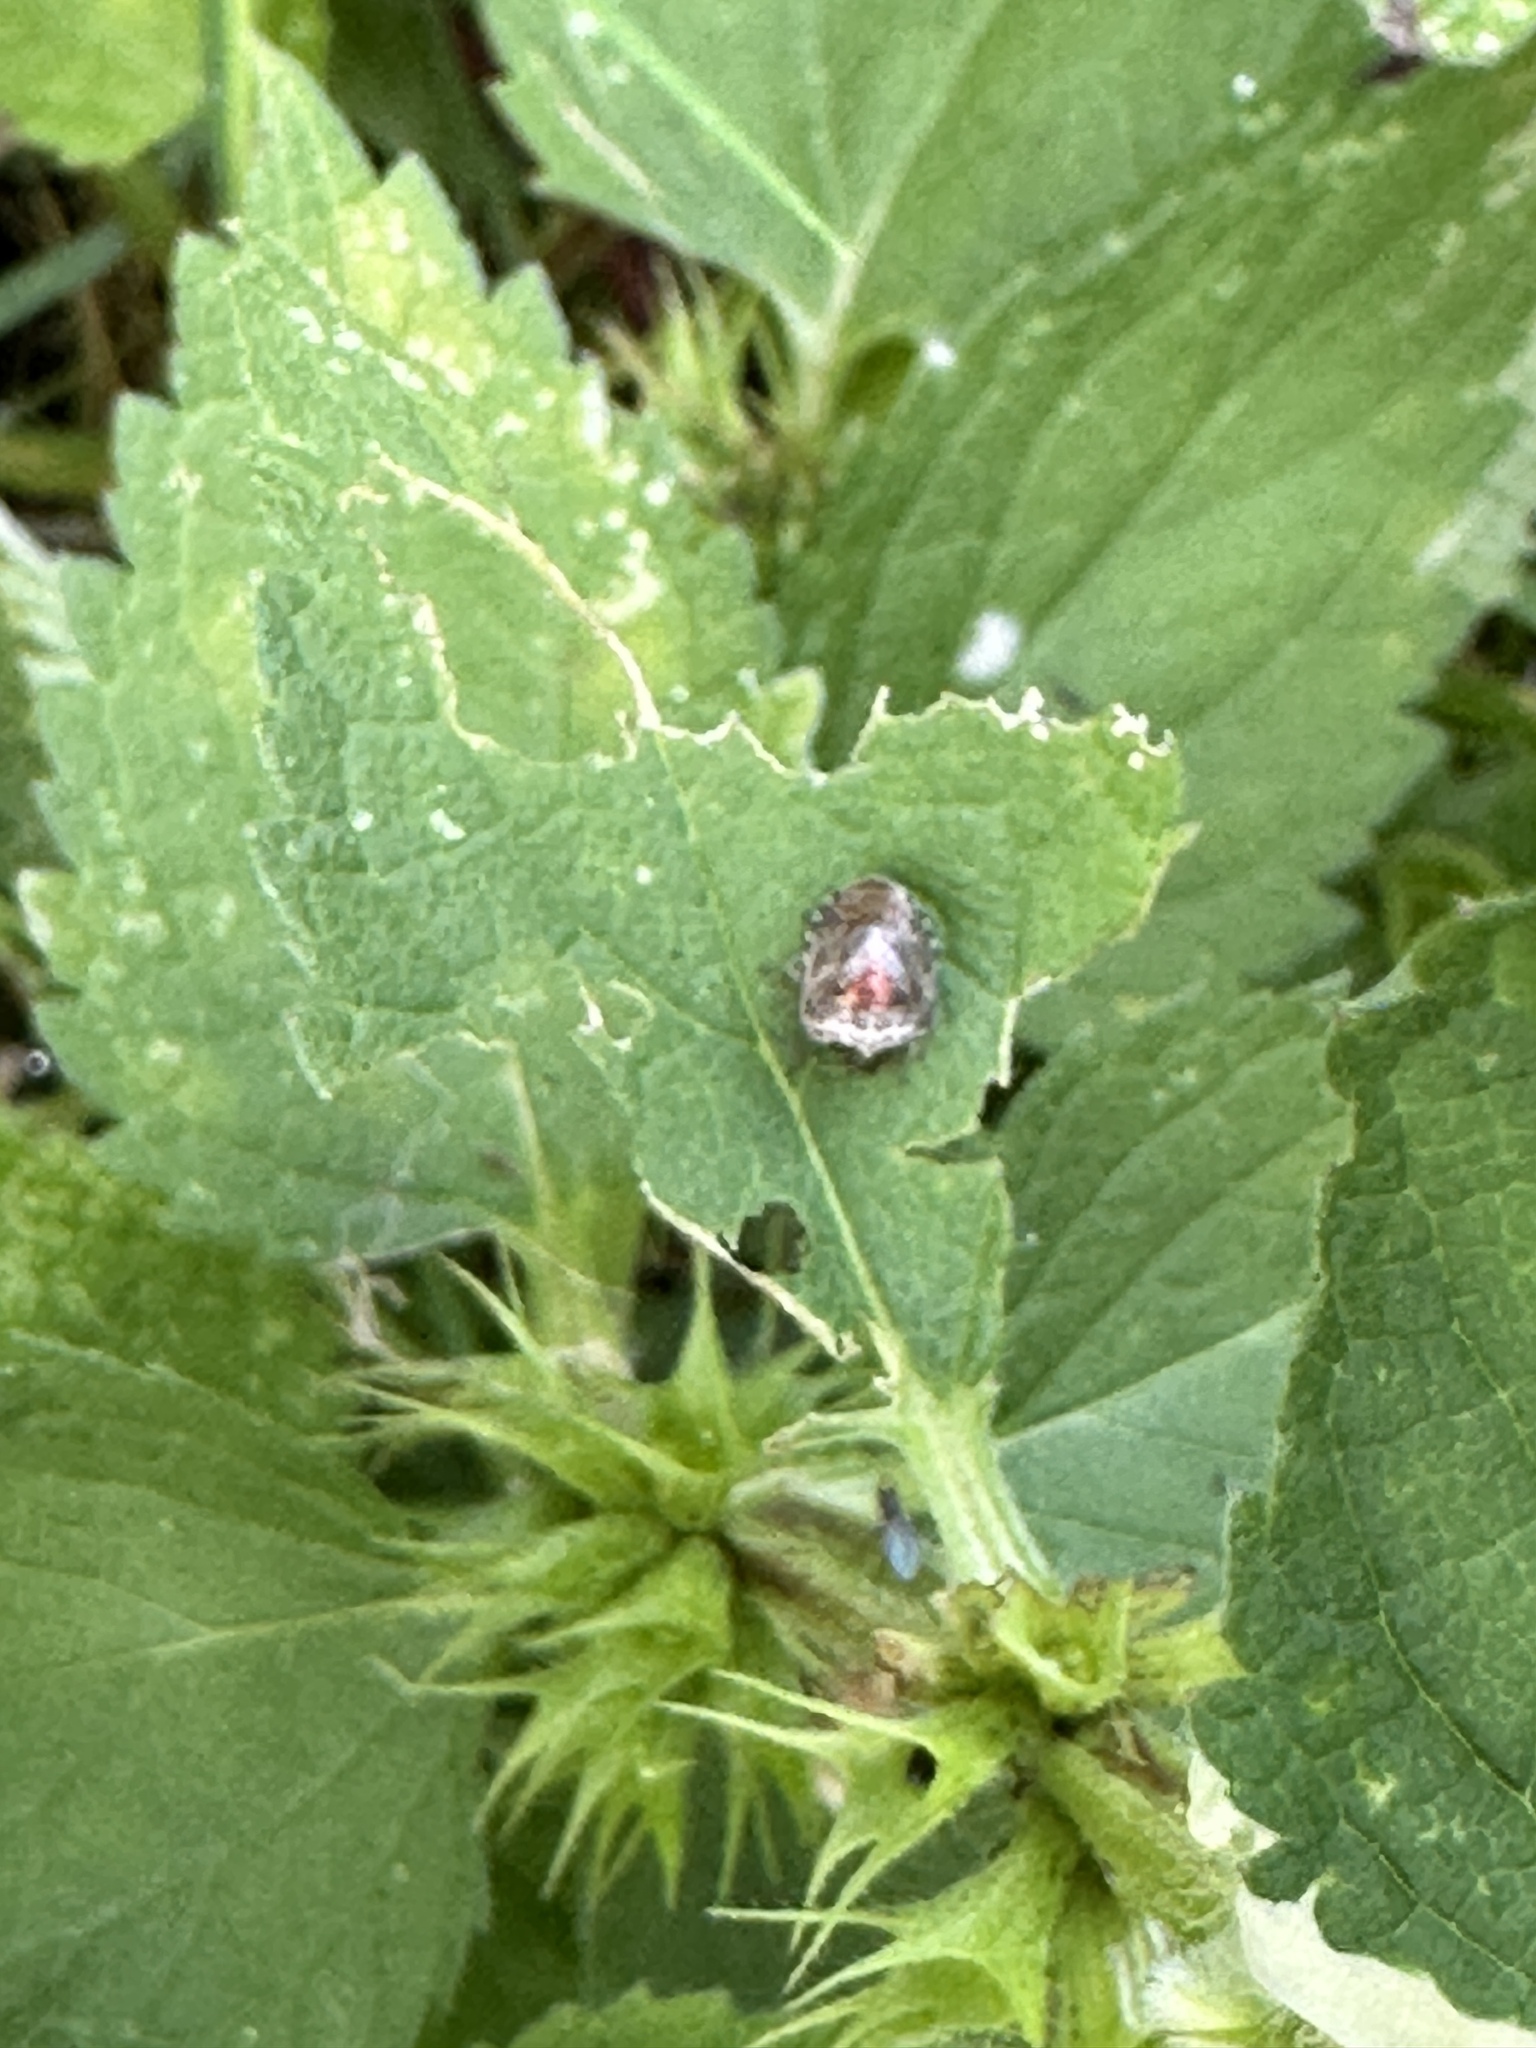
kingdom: Animalia
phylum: Arthropoda
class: Insecta
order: Hemiptera
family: Pentatomidae
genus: Eysarcoris
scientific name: Eysarcoris venustissimus
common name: Woundwort shieldbug
